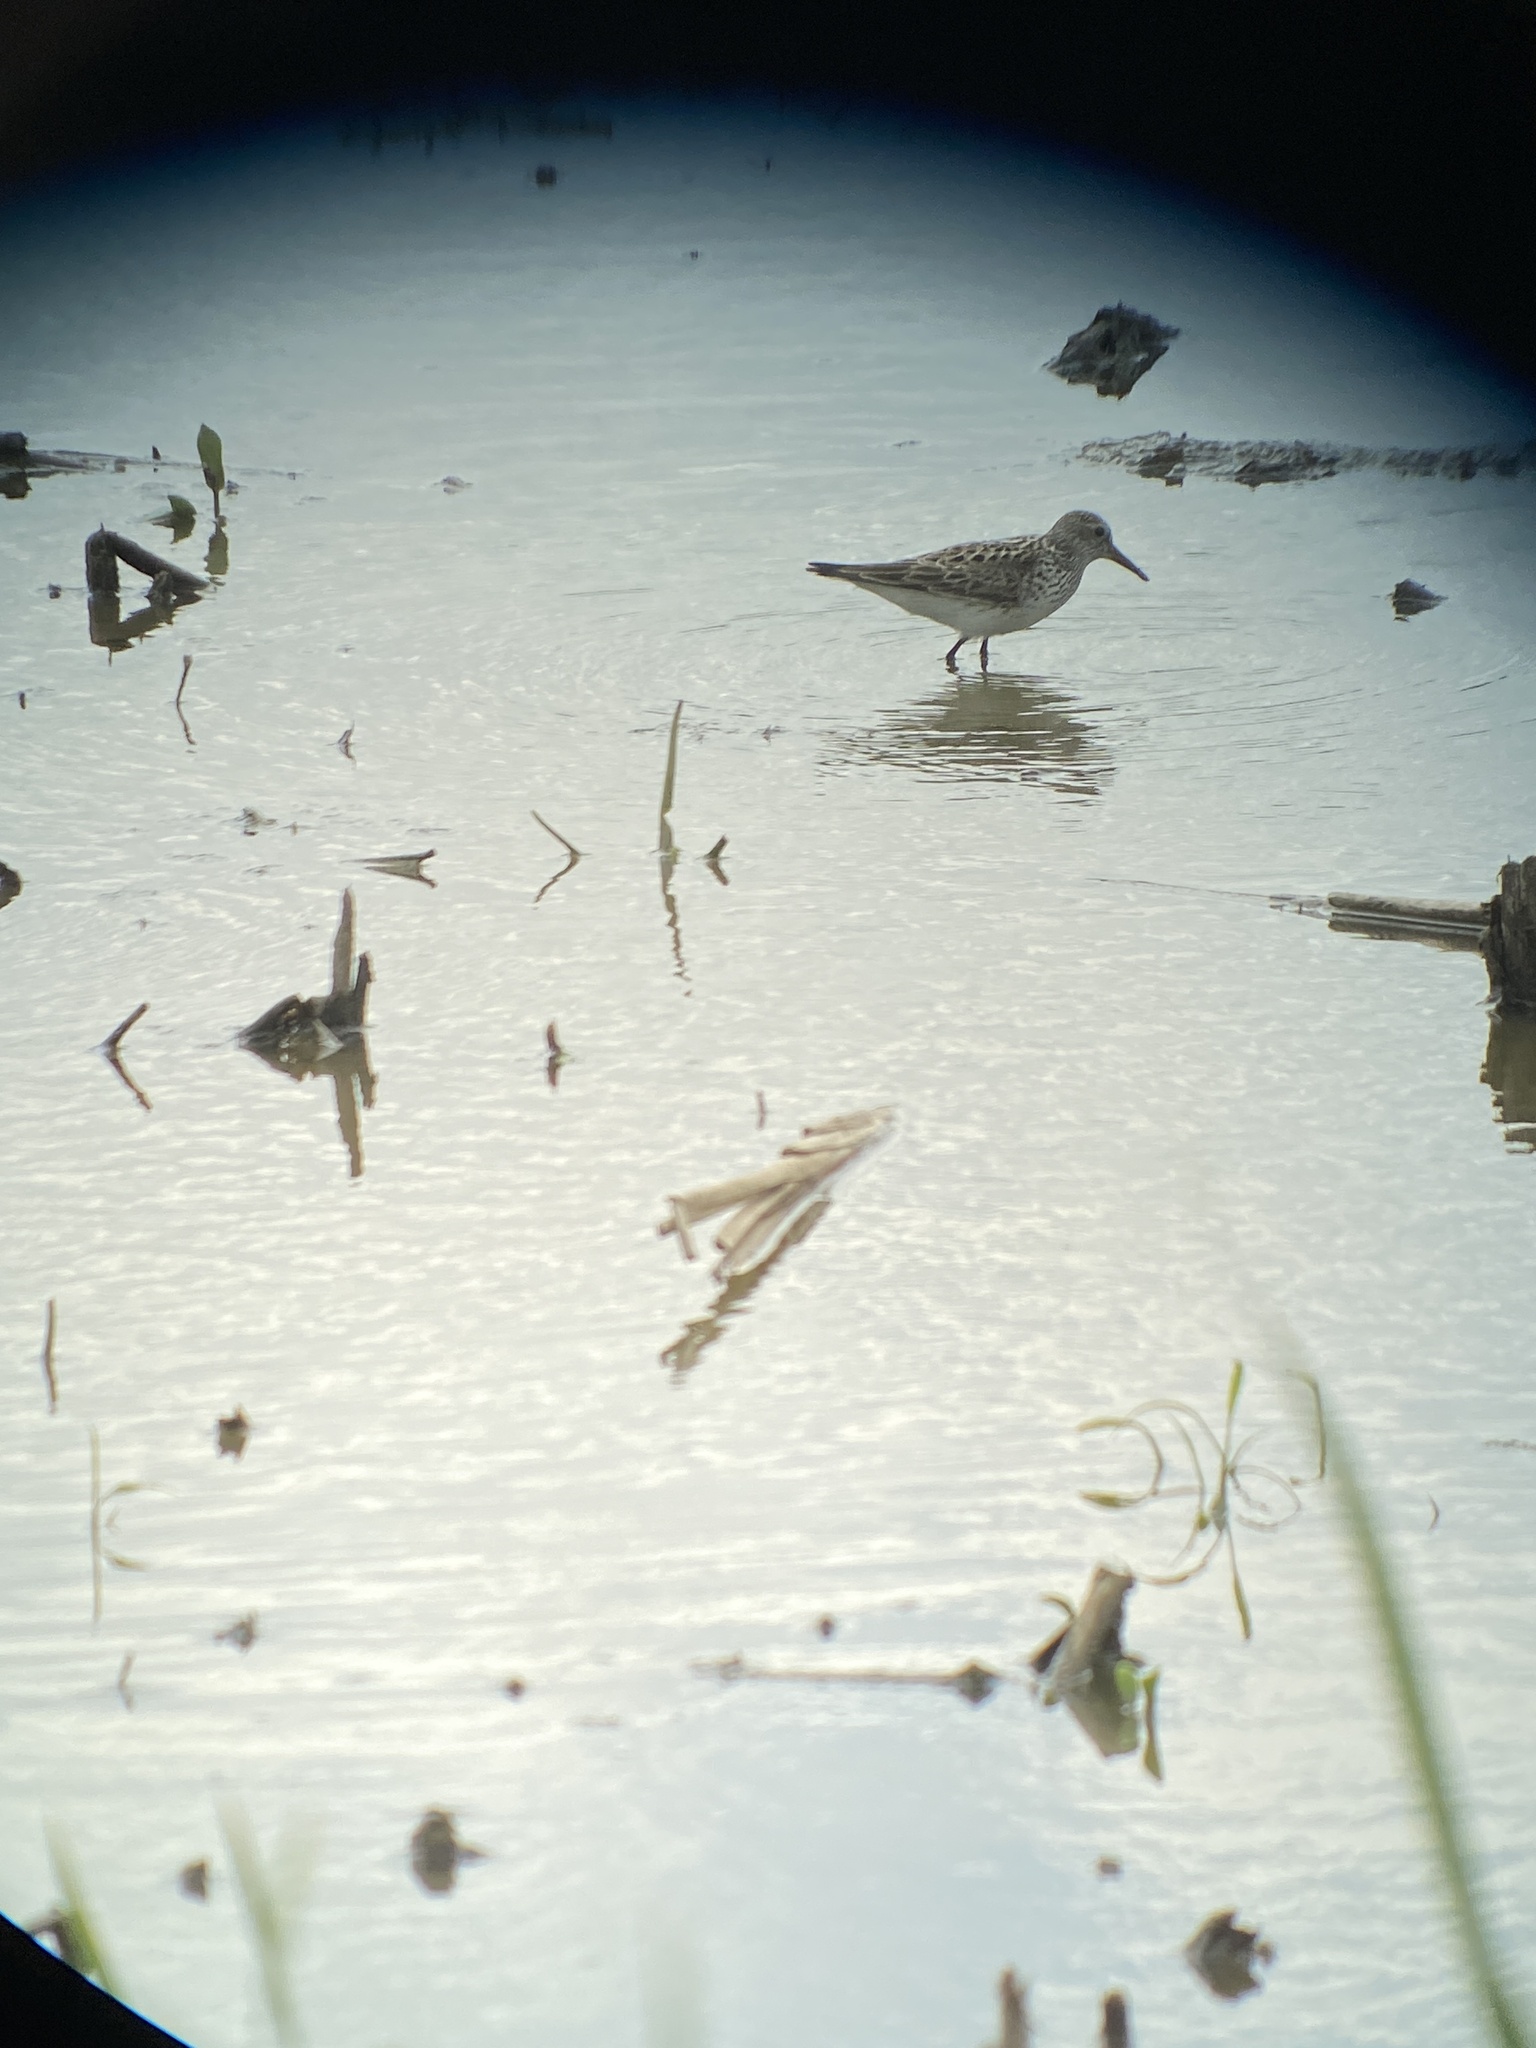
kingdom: Animalia
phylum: Chordata
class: Aves
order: Charadriiformes
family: Scolopacidae
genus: Calidris
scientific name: Calidris fuscicollis
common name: White-rumped sandpiper
